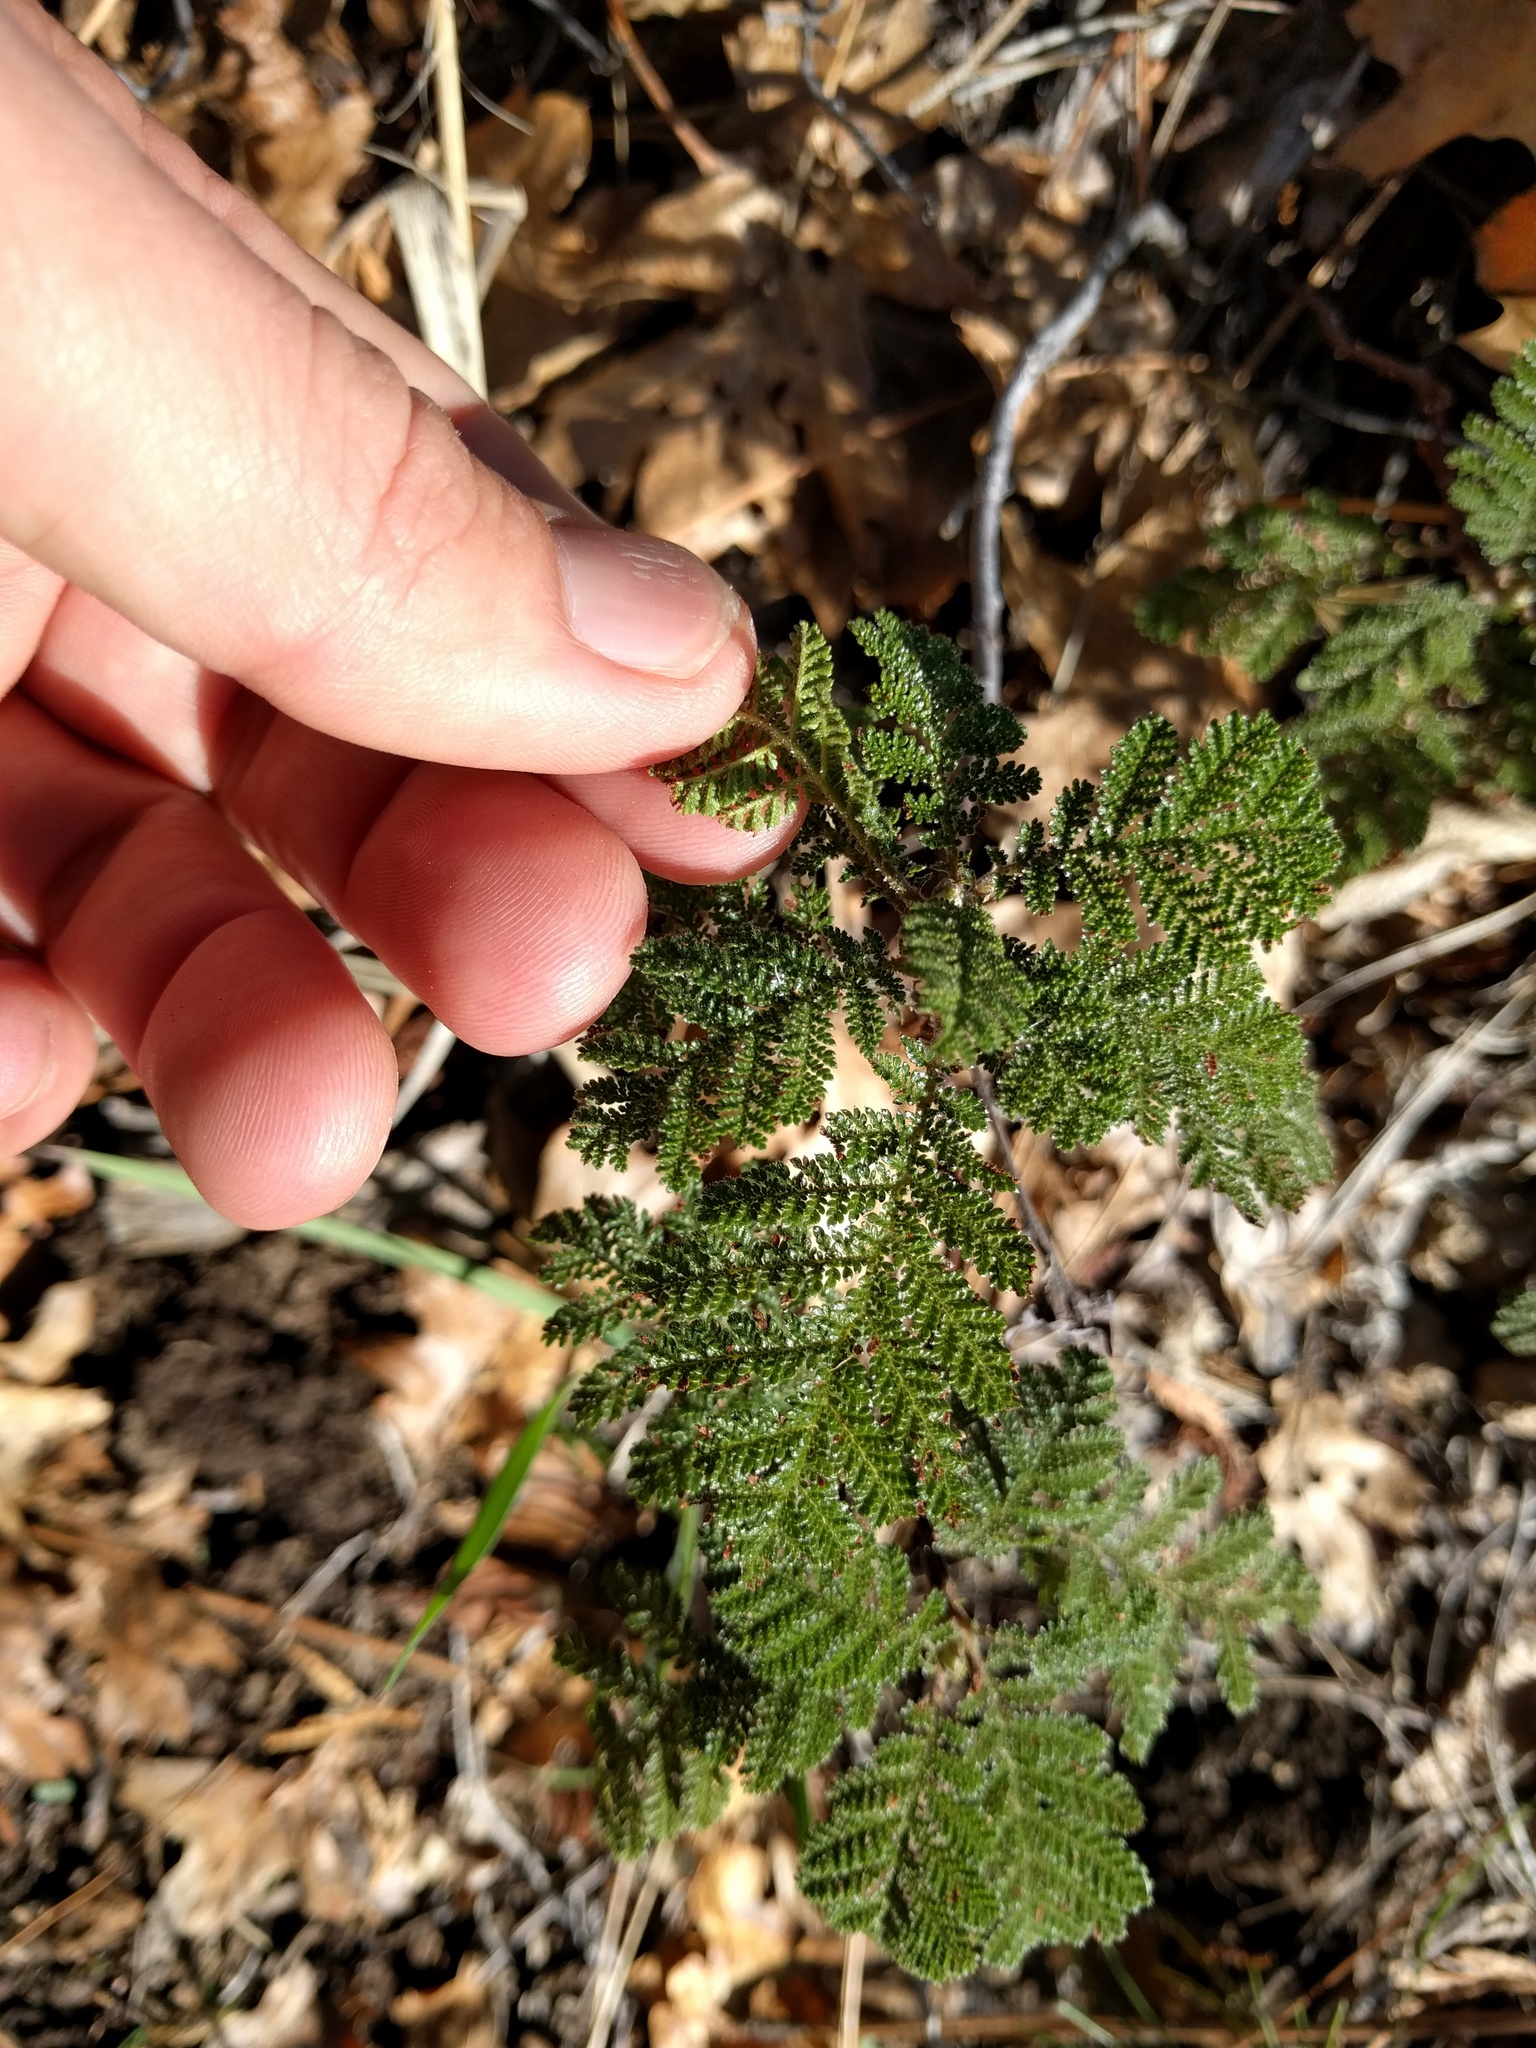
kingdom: Plantae
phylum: Tracheophyta
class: Magnoliopsida
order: Rosales
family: Rosaceae
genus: Chamaebatia
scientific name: Chamaebatia foliolosa
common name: Mountain misery
